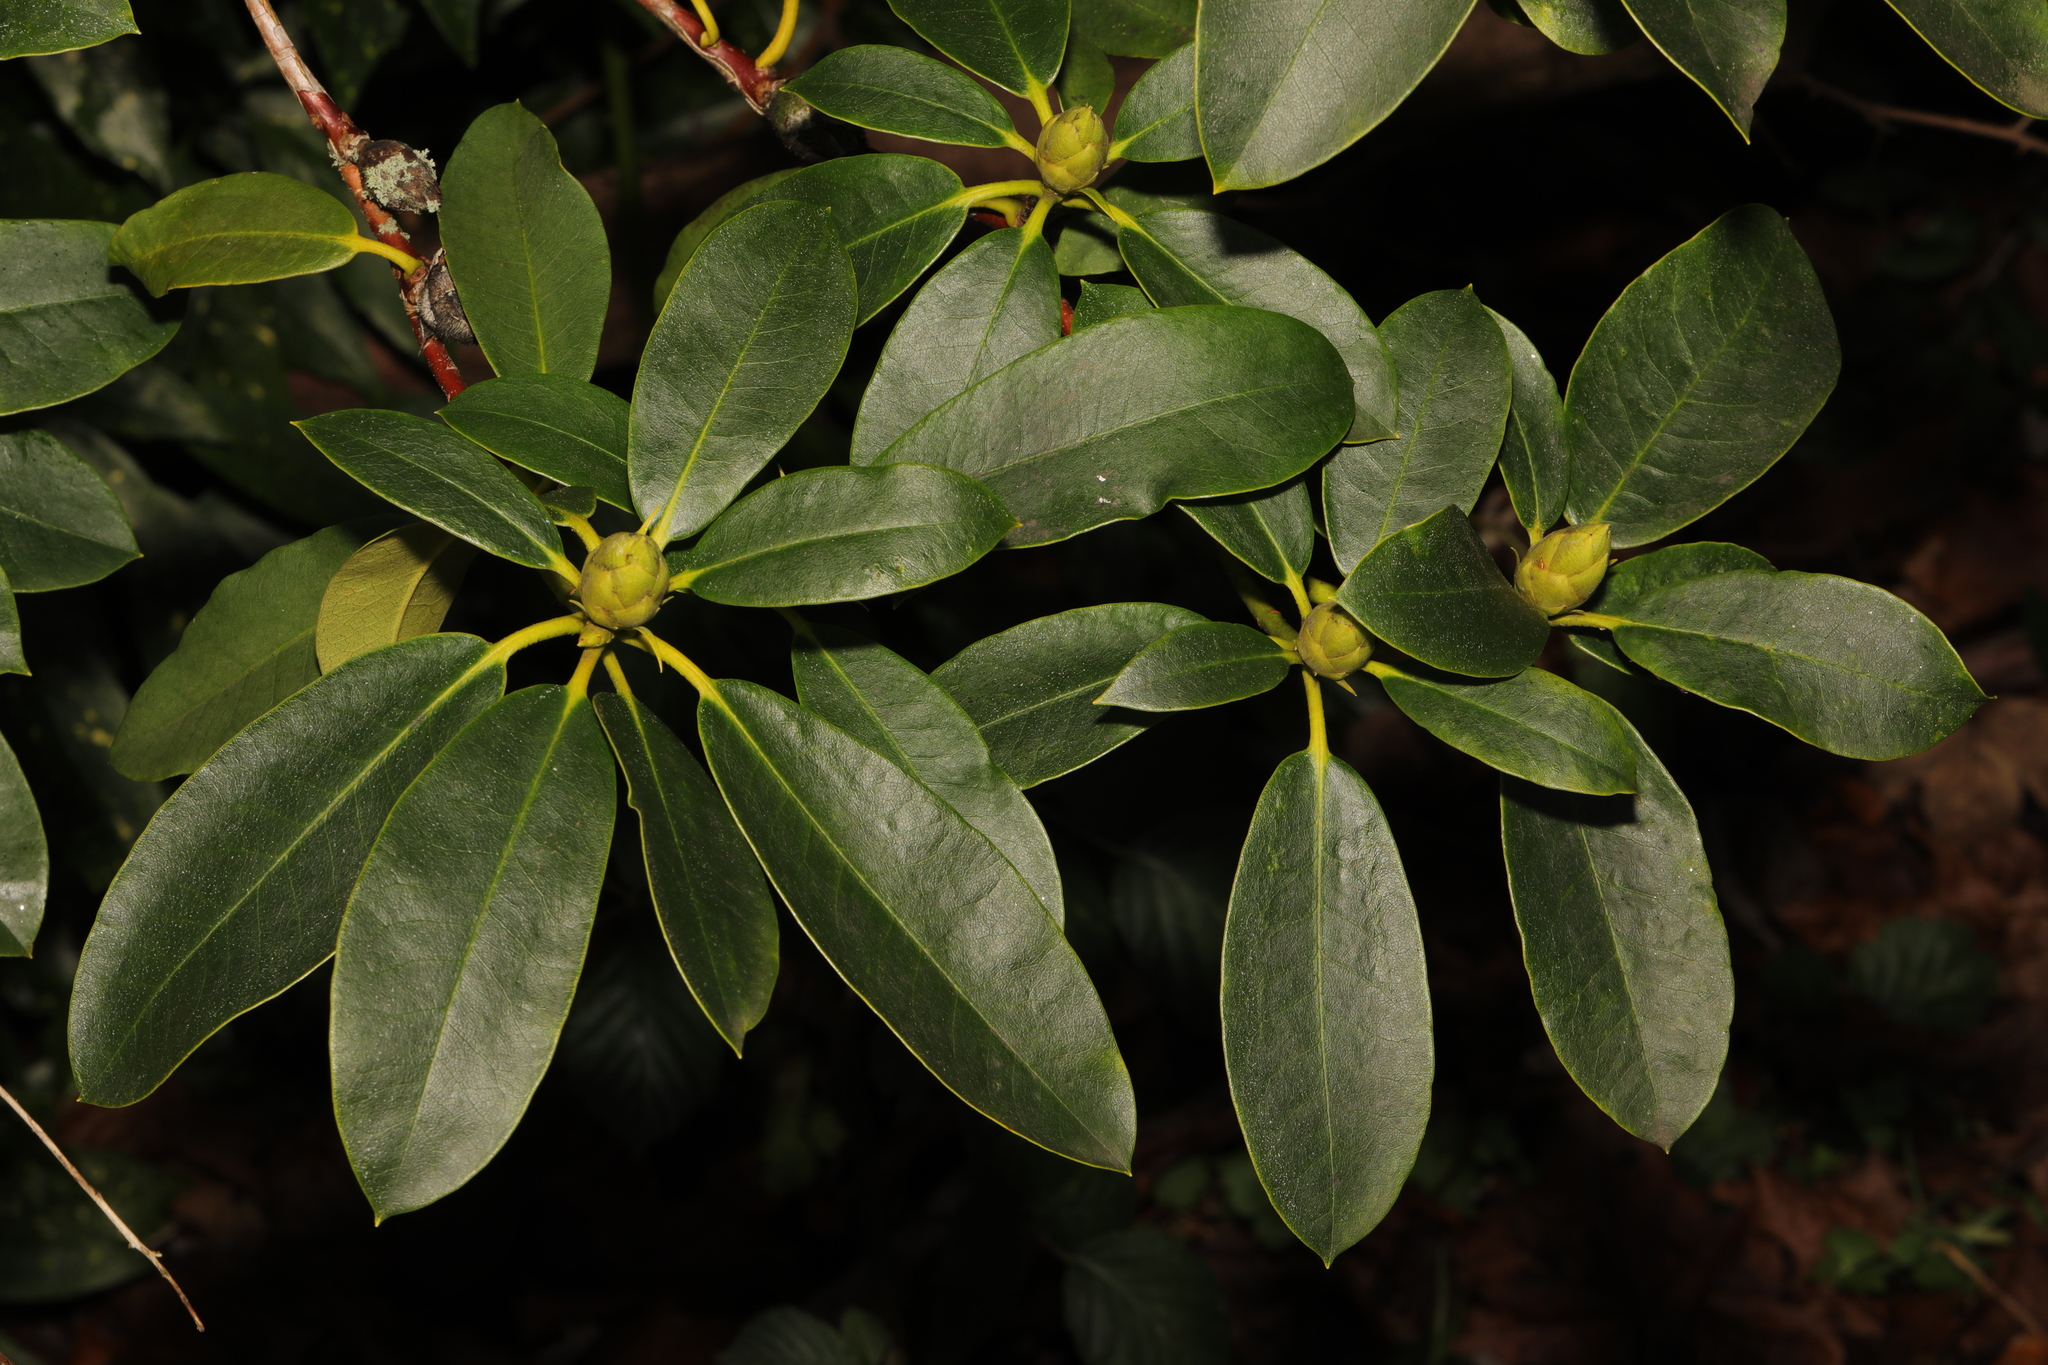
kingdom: Plantae
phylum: Tracheophyta
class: Magnoliopsida
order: Ericales
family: Ericaceae
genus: Rhododendron
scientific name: Rhododendron ponticum
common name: Rhododendron
